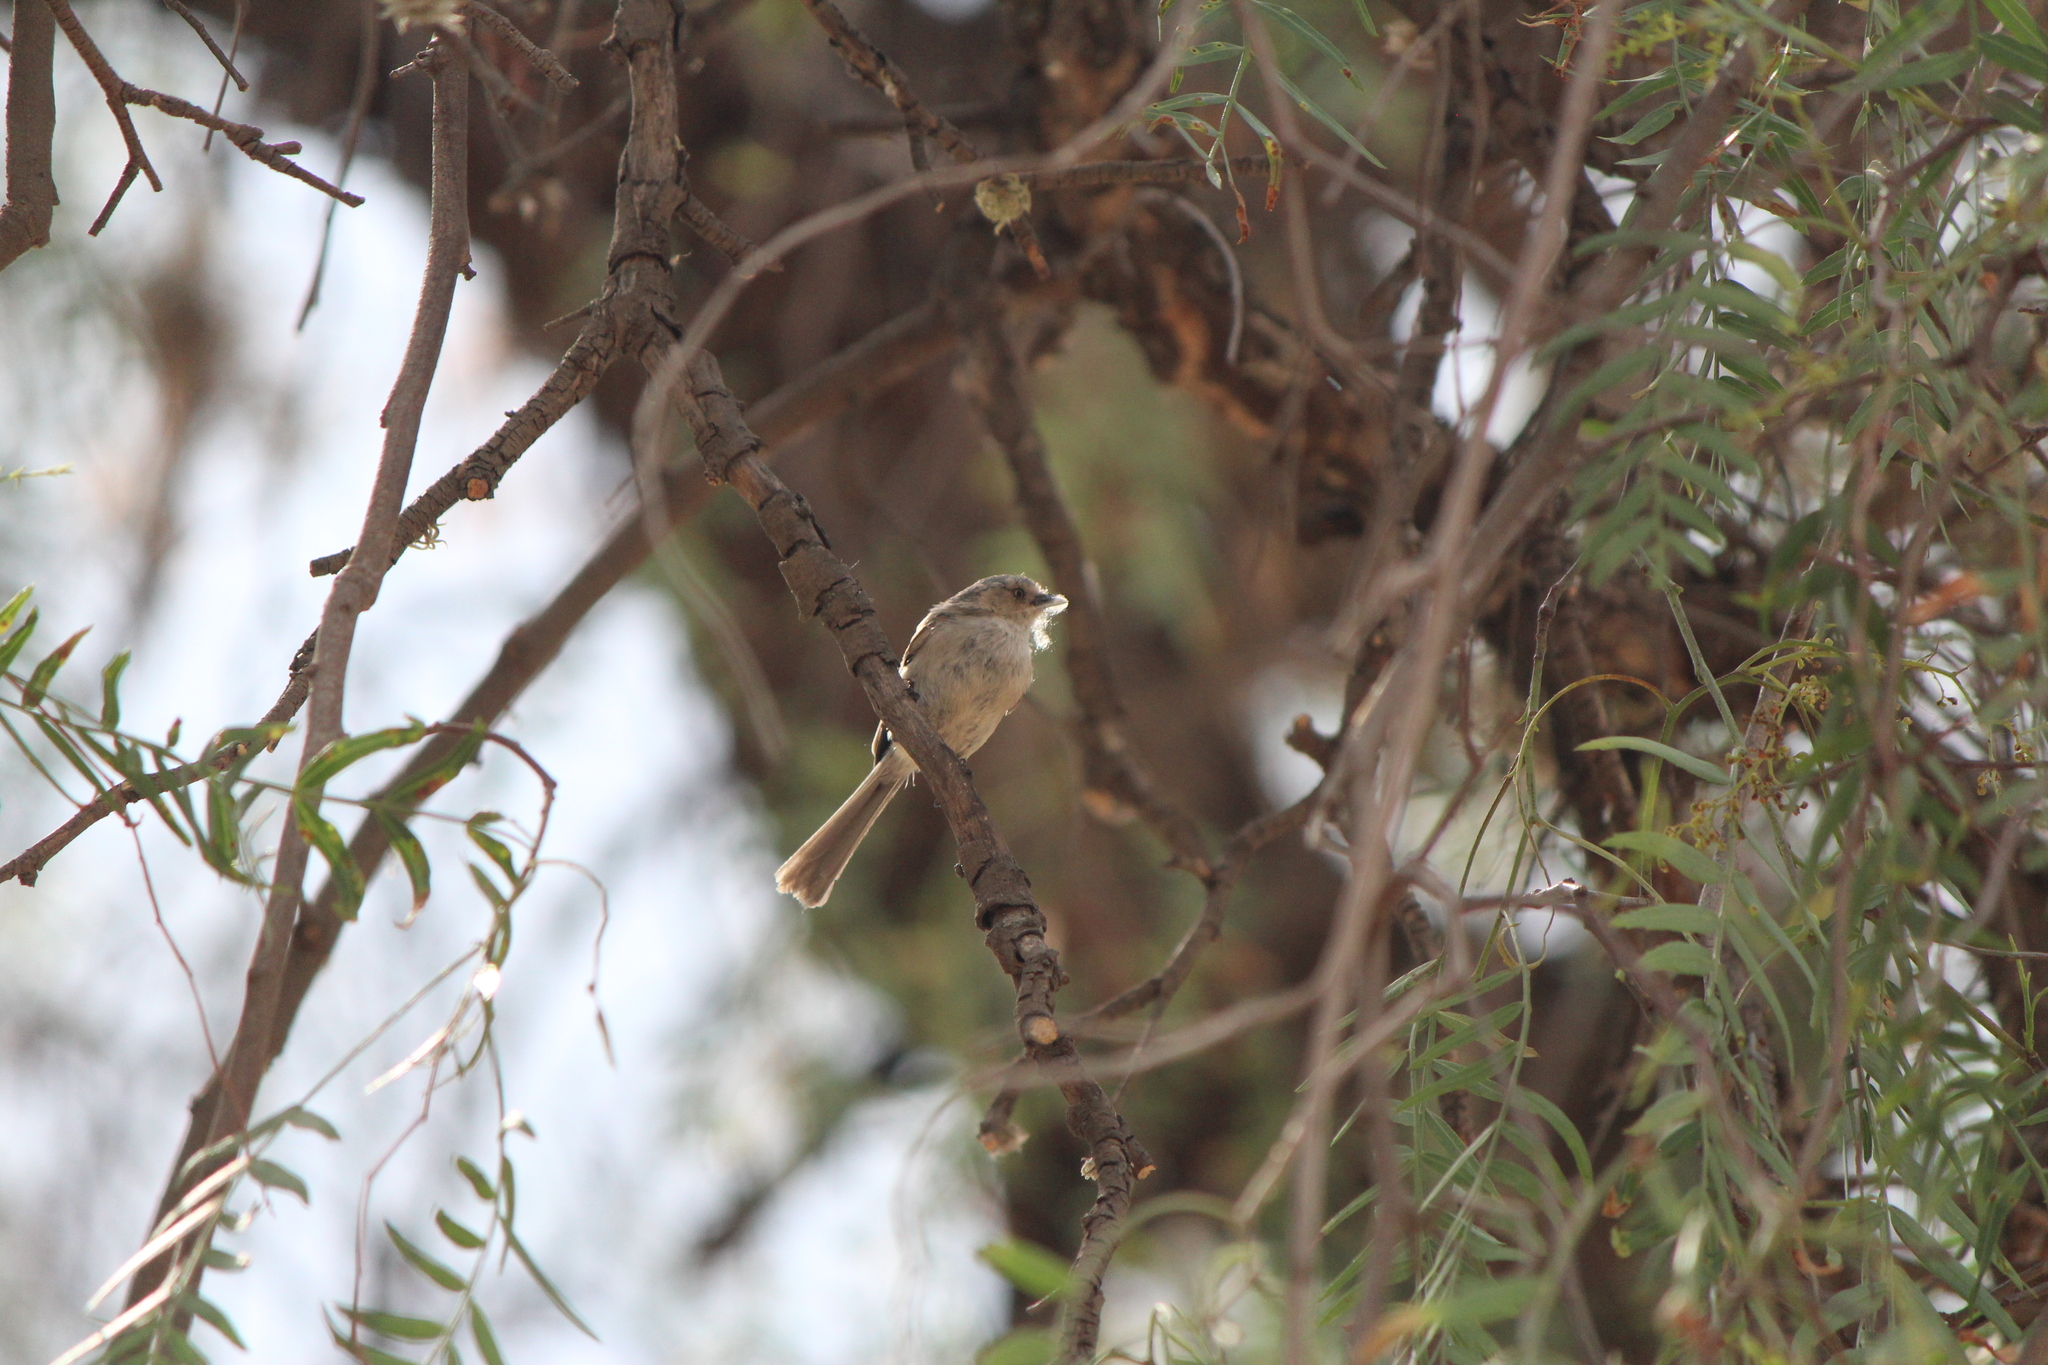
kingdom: Animalia
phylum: Chordata
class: Aves
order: Passeriformes
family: Aegithalidae
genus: Psaltriparus
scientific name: Psaltriparus minimus
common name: American bushtit
